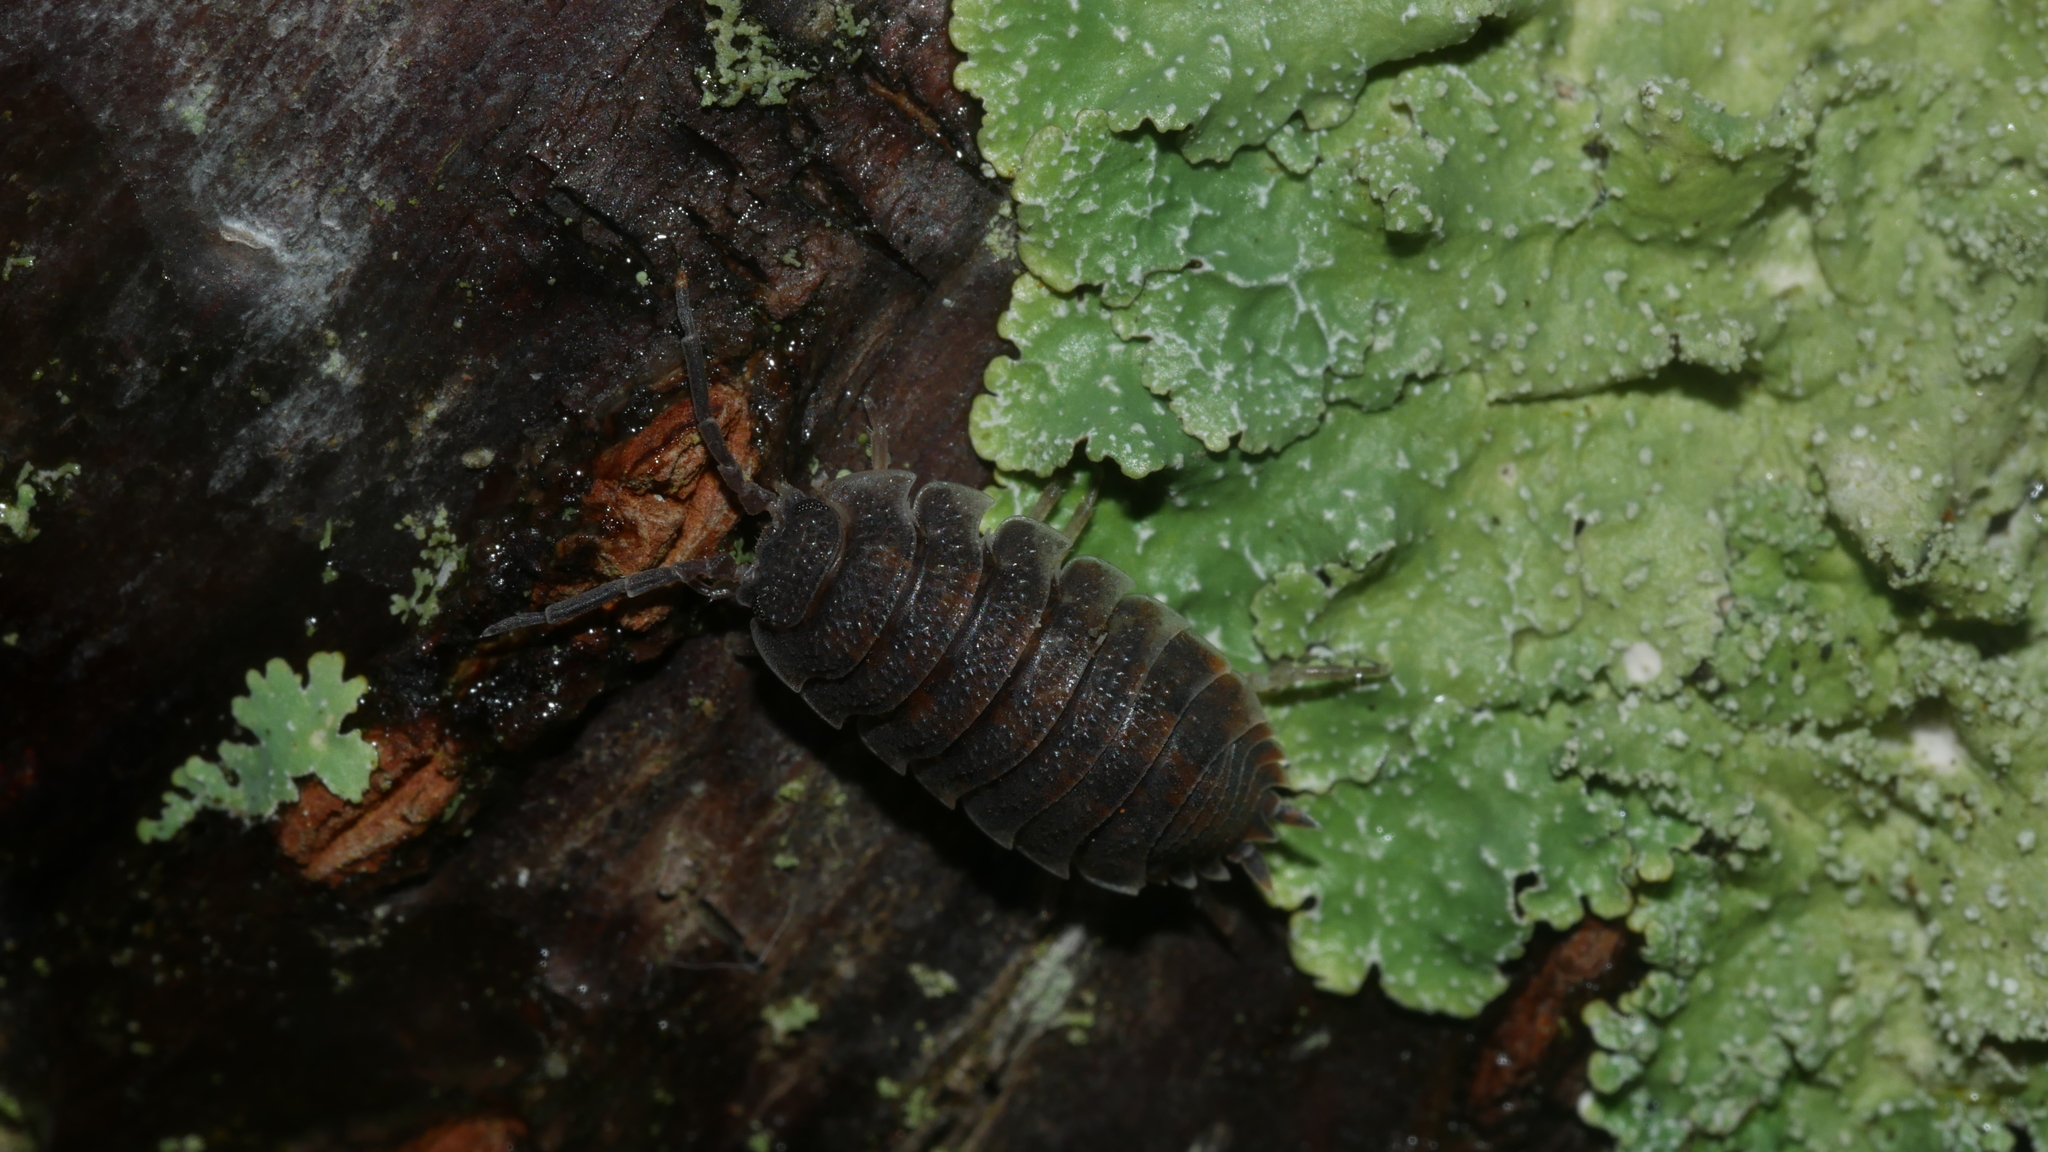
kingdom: Animalia
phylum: Arthropoda
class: Malacostraca
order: Isopoda
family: Porcellionidae
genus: Porcellio
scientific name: Porcellio scaber
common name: Common rough woodlouse
